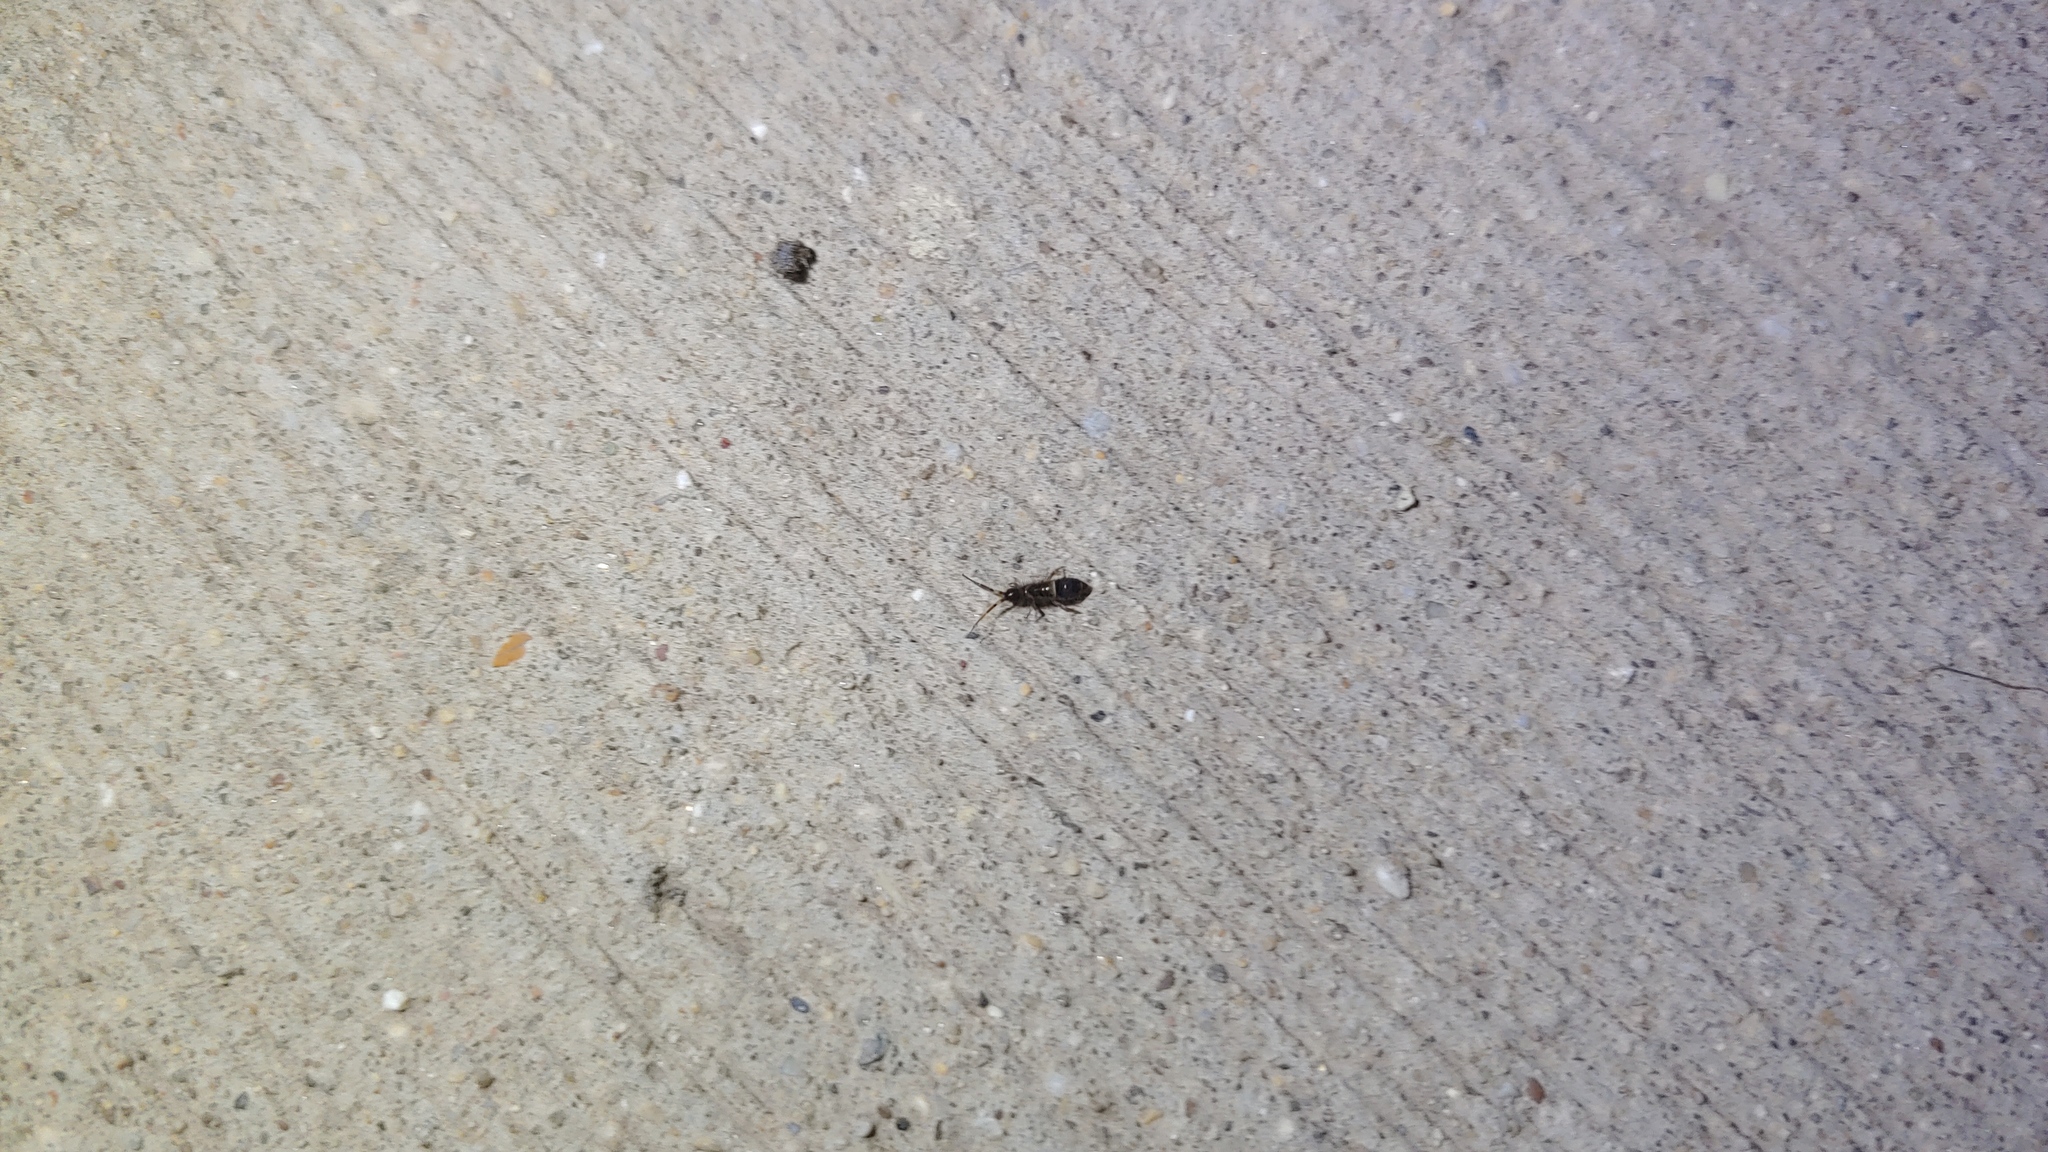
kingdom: Animalia
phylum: Arthropoda
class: Collembola
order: Entomobryomorpha
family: Orchesellidae
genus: Orchesella
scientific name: Orchesella cincta
